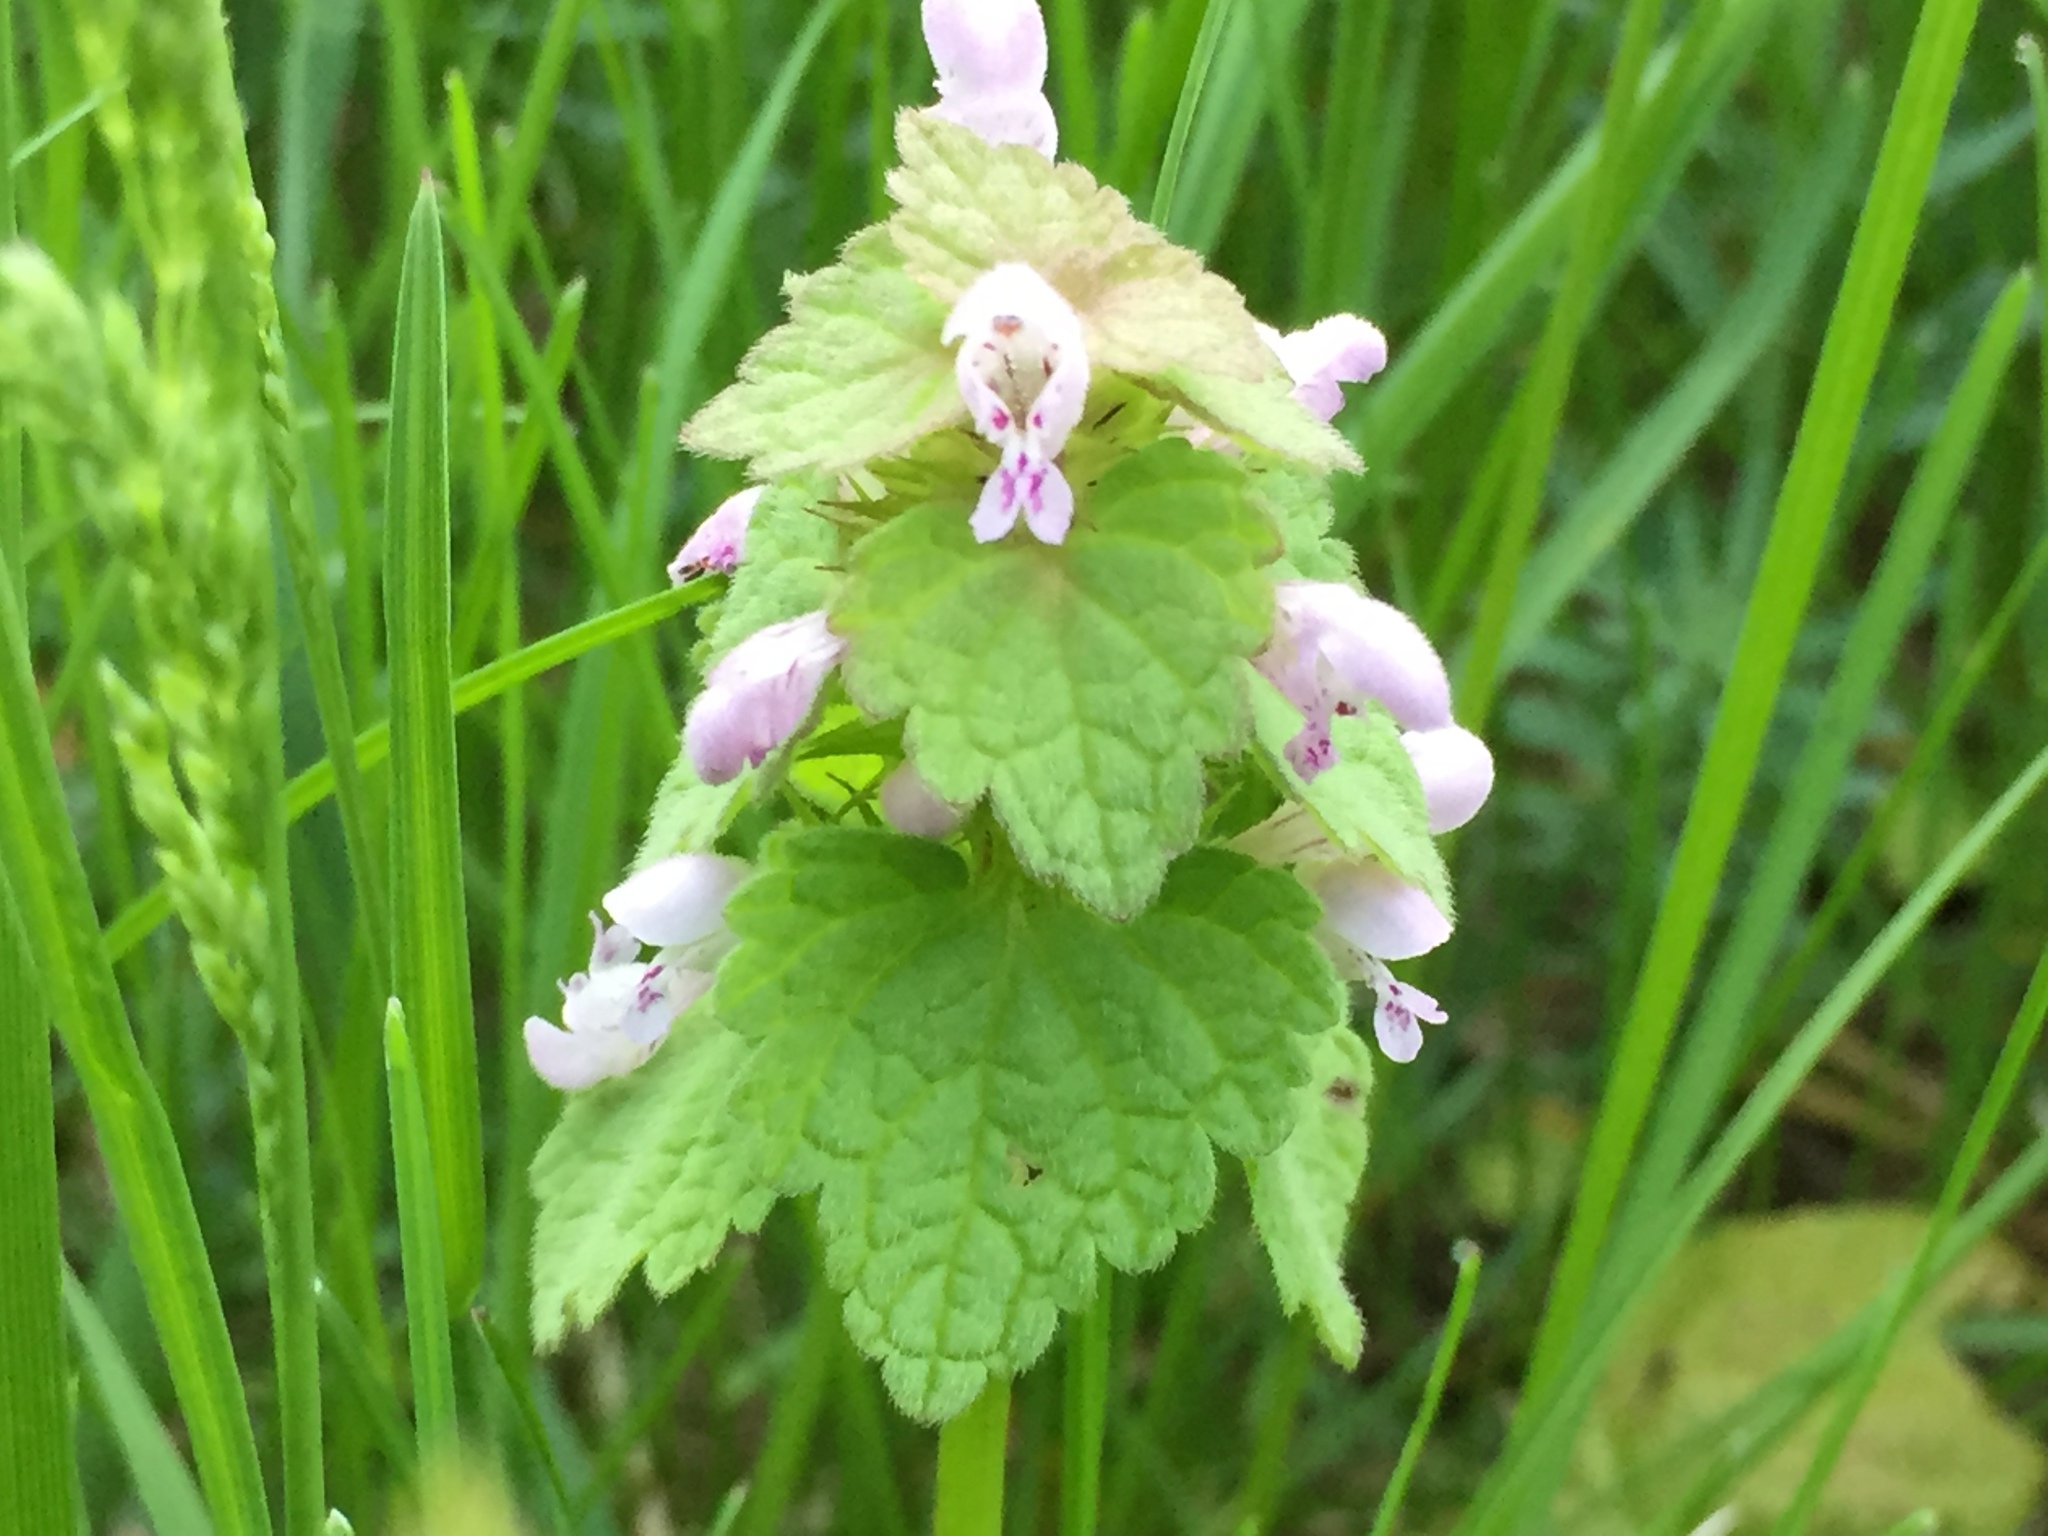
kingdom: Plantae
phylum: Tracheophyta
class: Magnoliopsida
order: Lamiales
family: Lamiaceae
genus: Lamium
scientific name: Lamium purpureum
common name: Red dead-nettle
